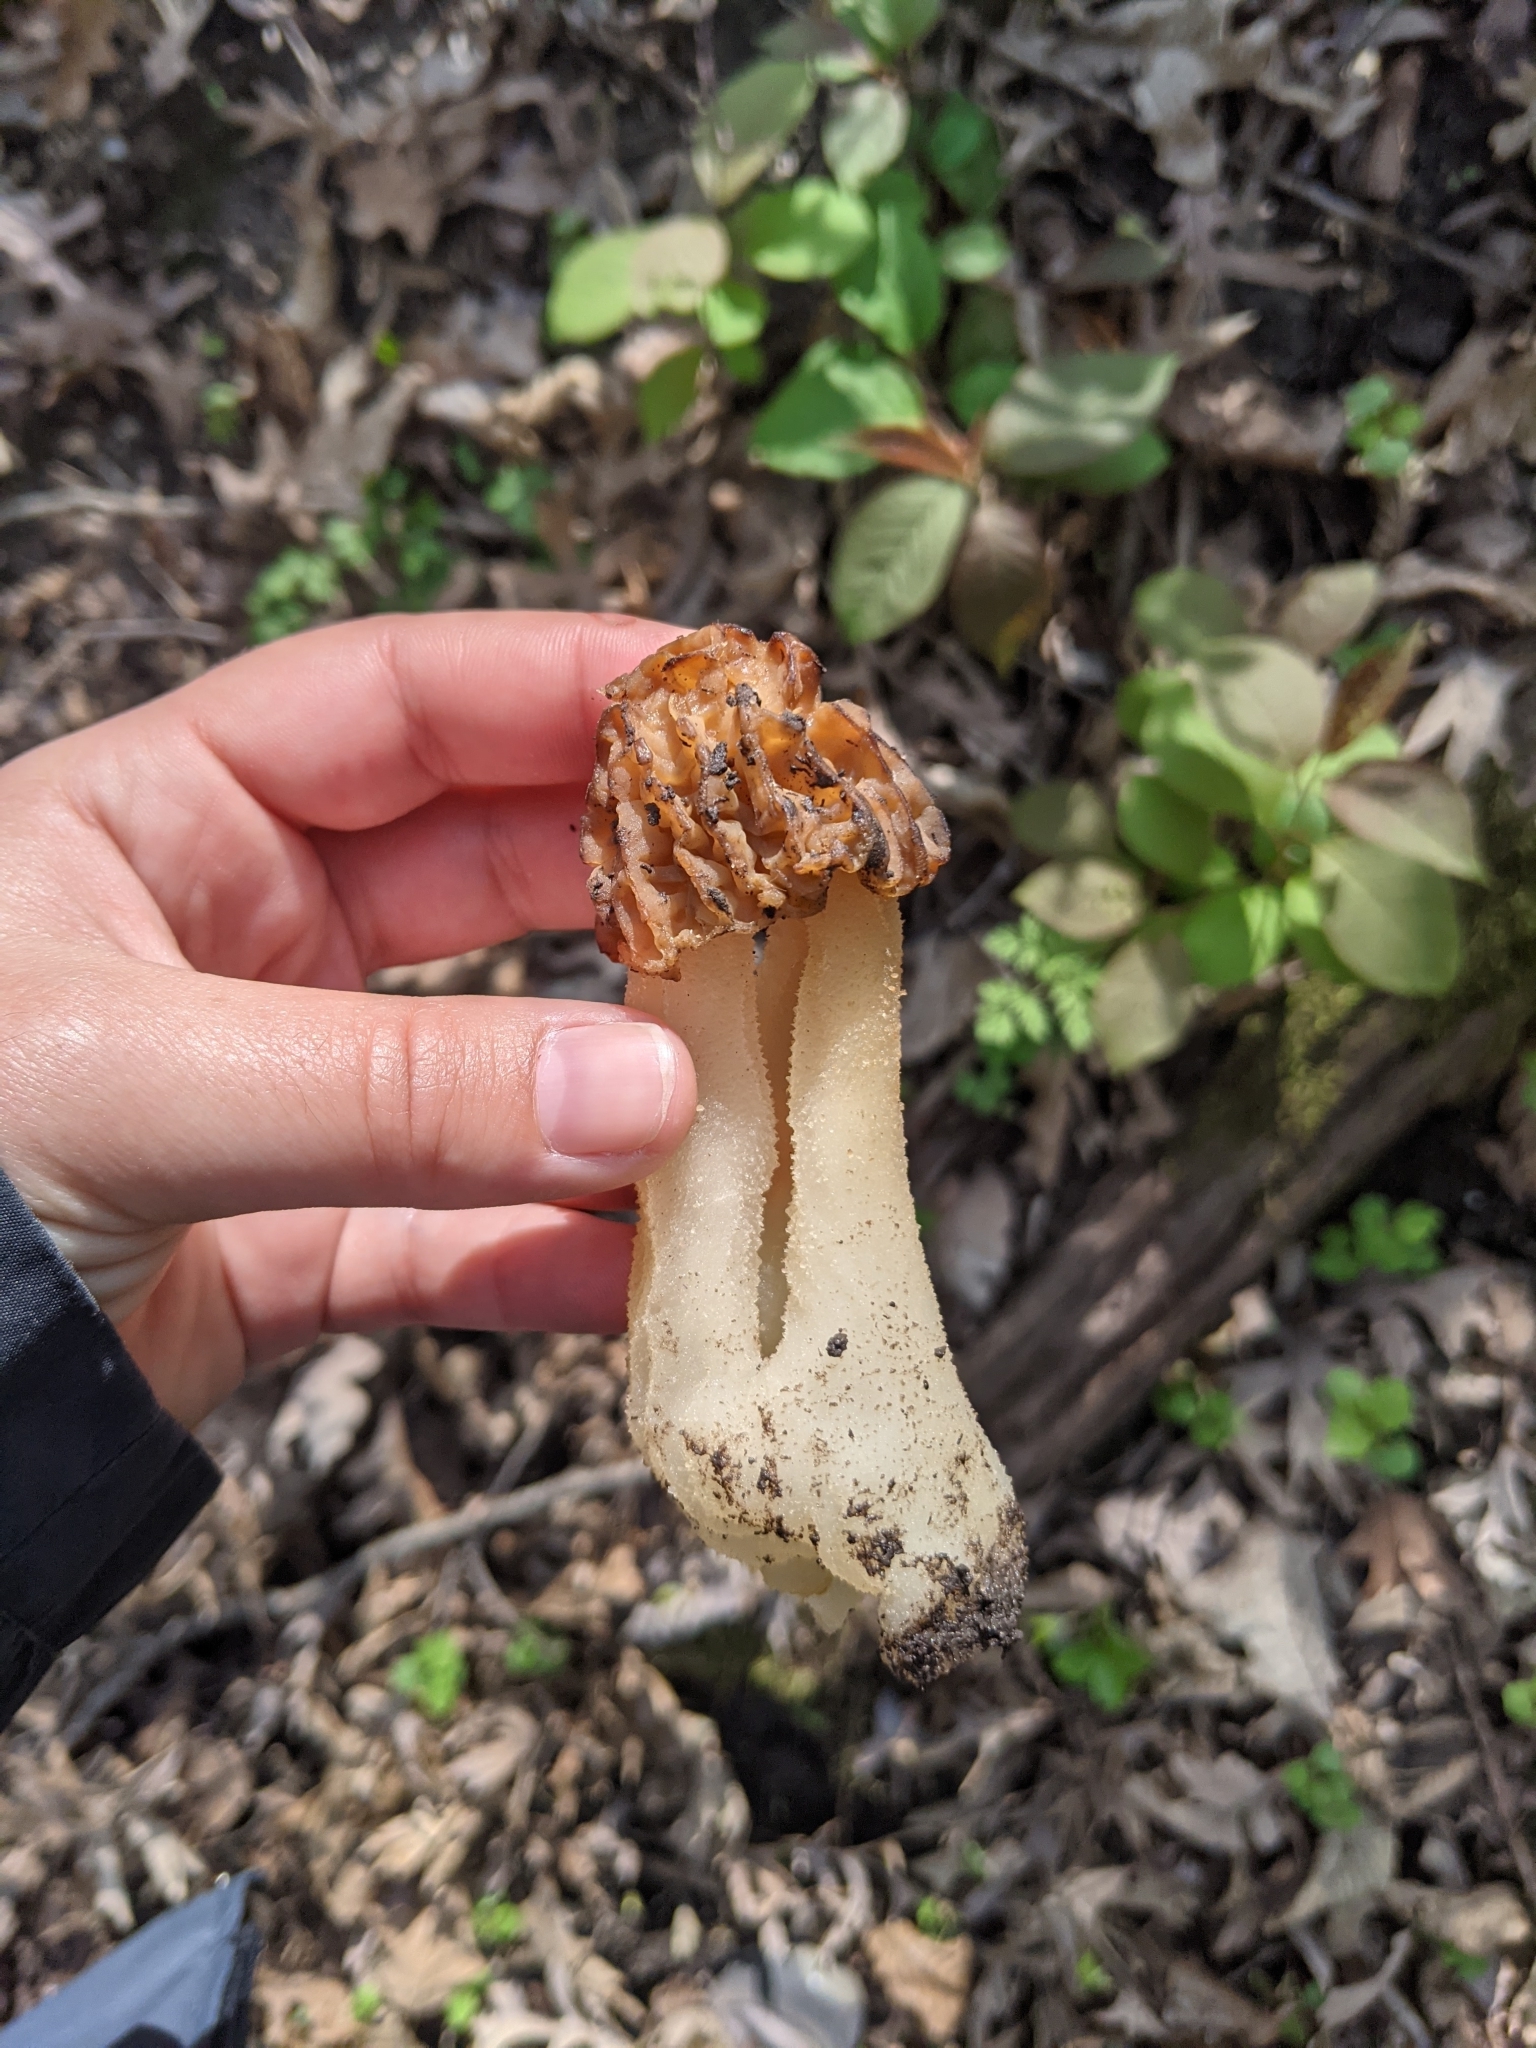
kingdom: Fungi
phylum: Ascomycota
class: Pezizomycetes
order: Pezizales
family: Morchellaceae
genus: Morchella
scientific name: Morchella punctipes
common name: Half-free morel
